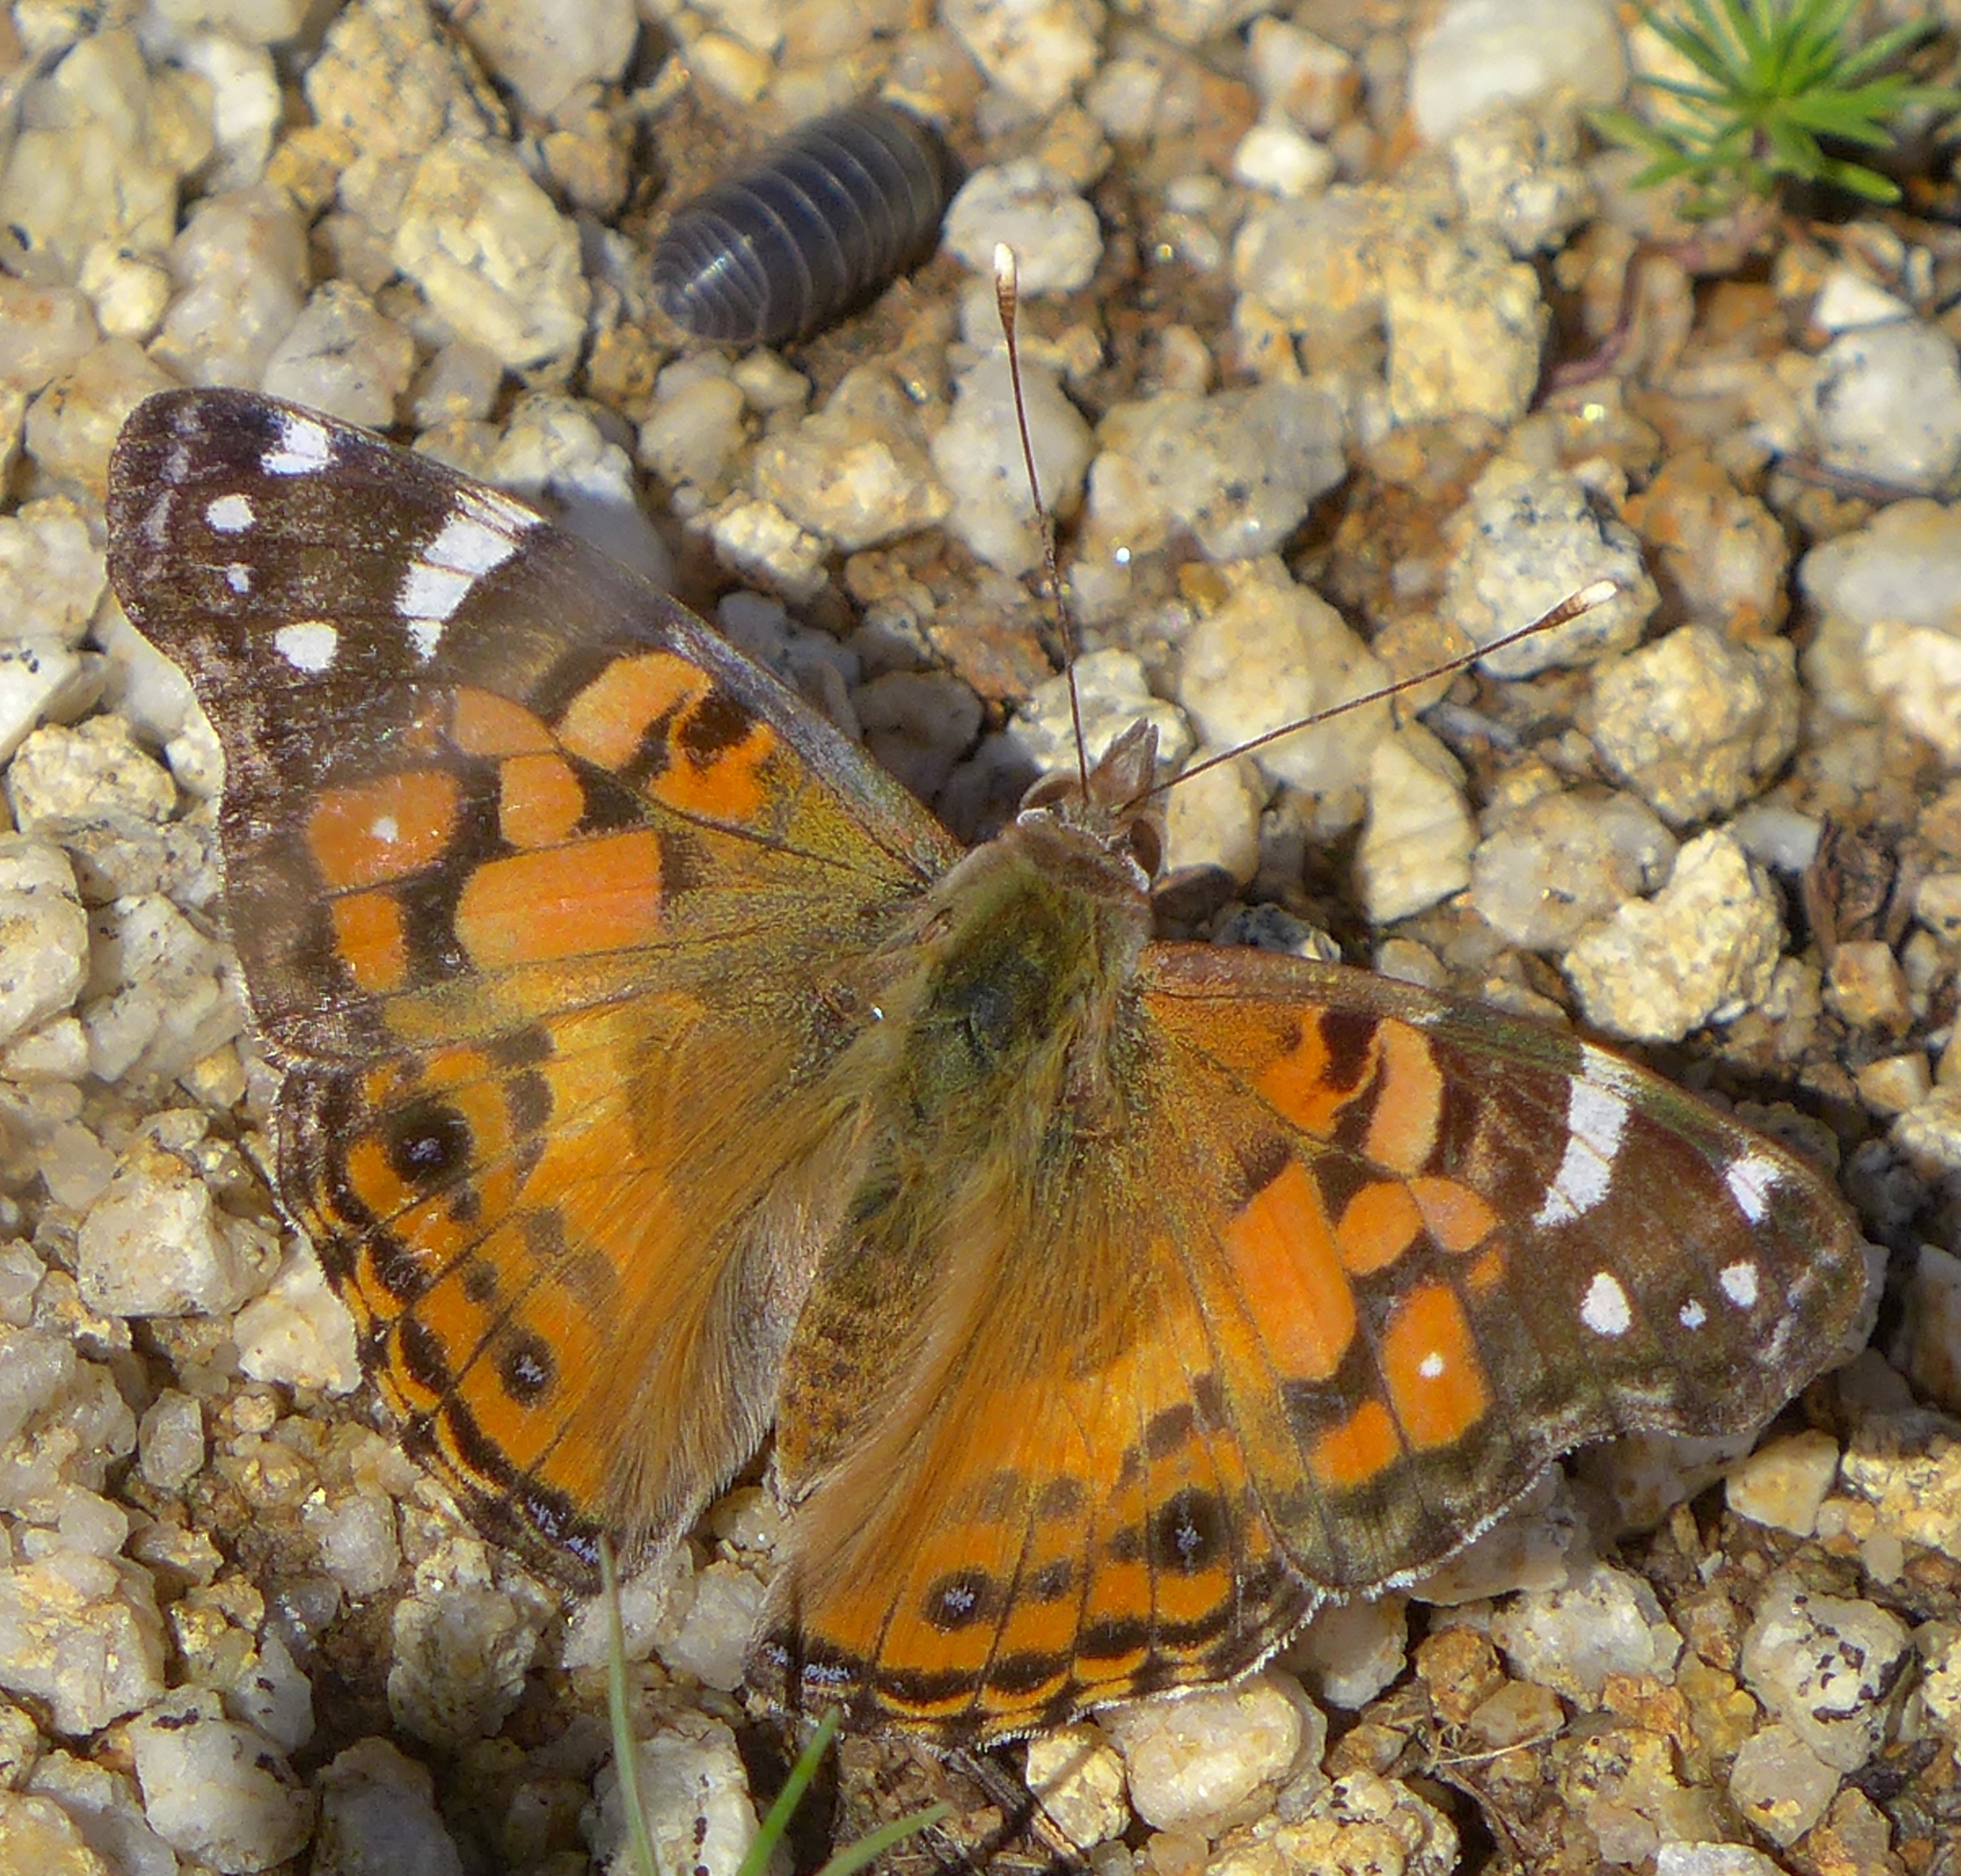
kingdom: Animalia
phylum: Arthropoda
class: Insecta
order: Lepidoptera
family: Nymphalidae
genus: Vanessa
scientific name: Vanessa virginiensis
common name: American lady
